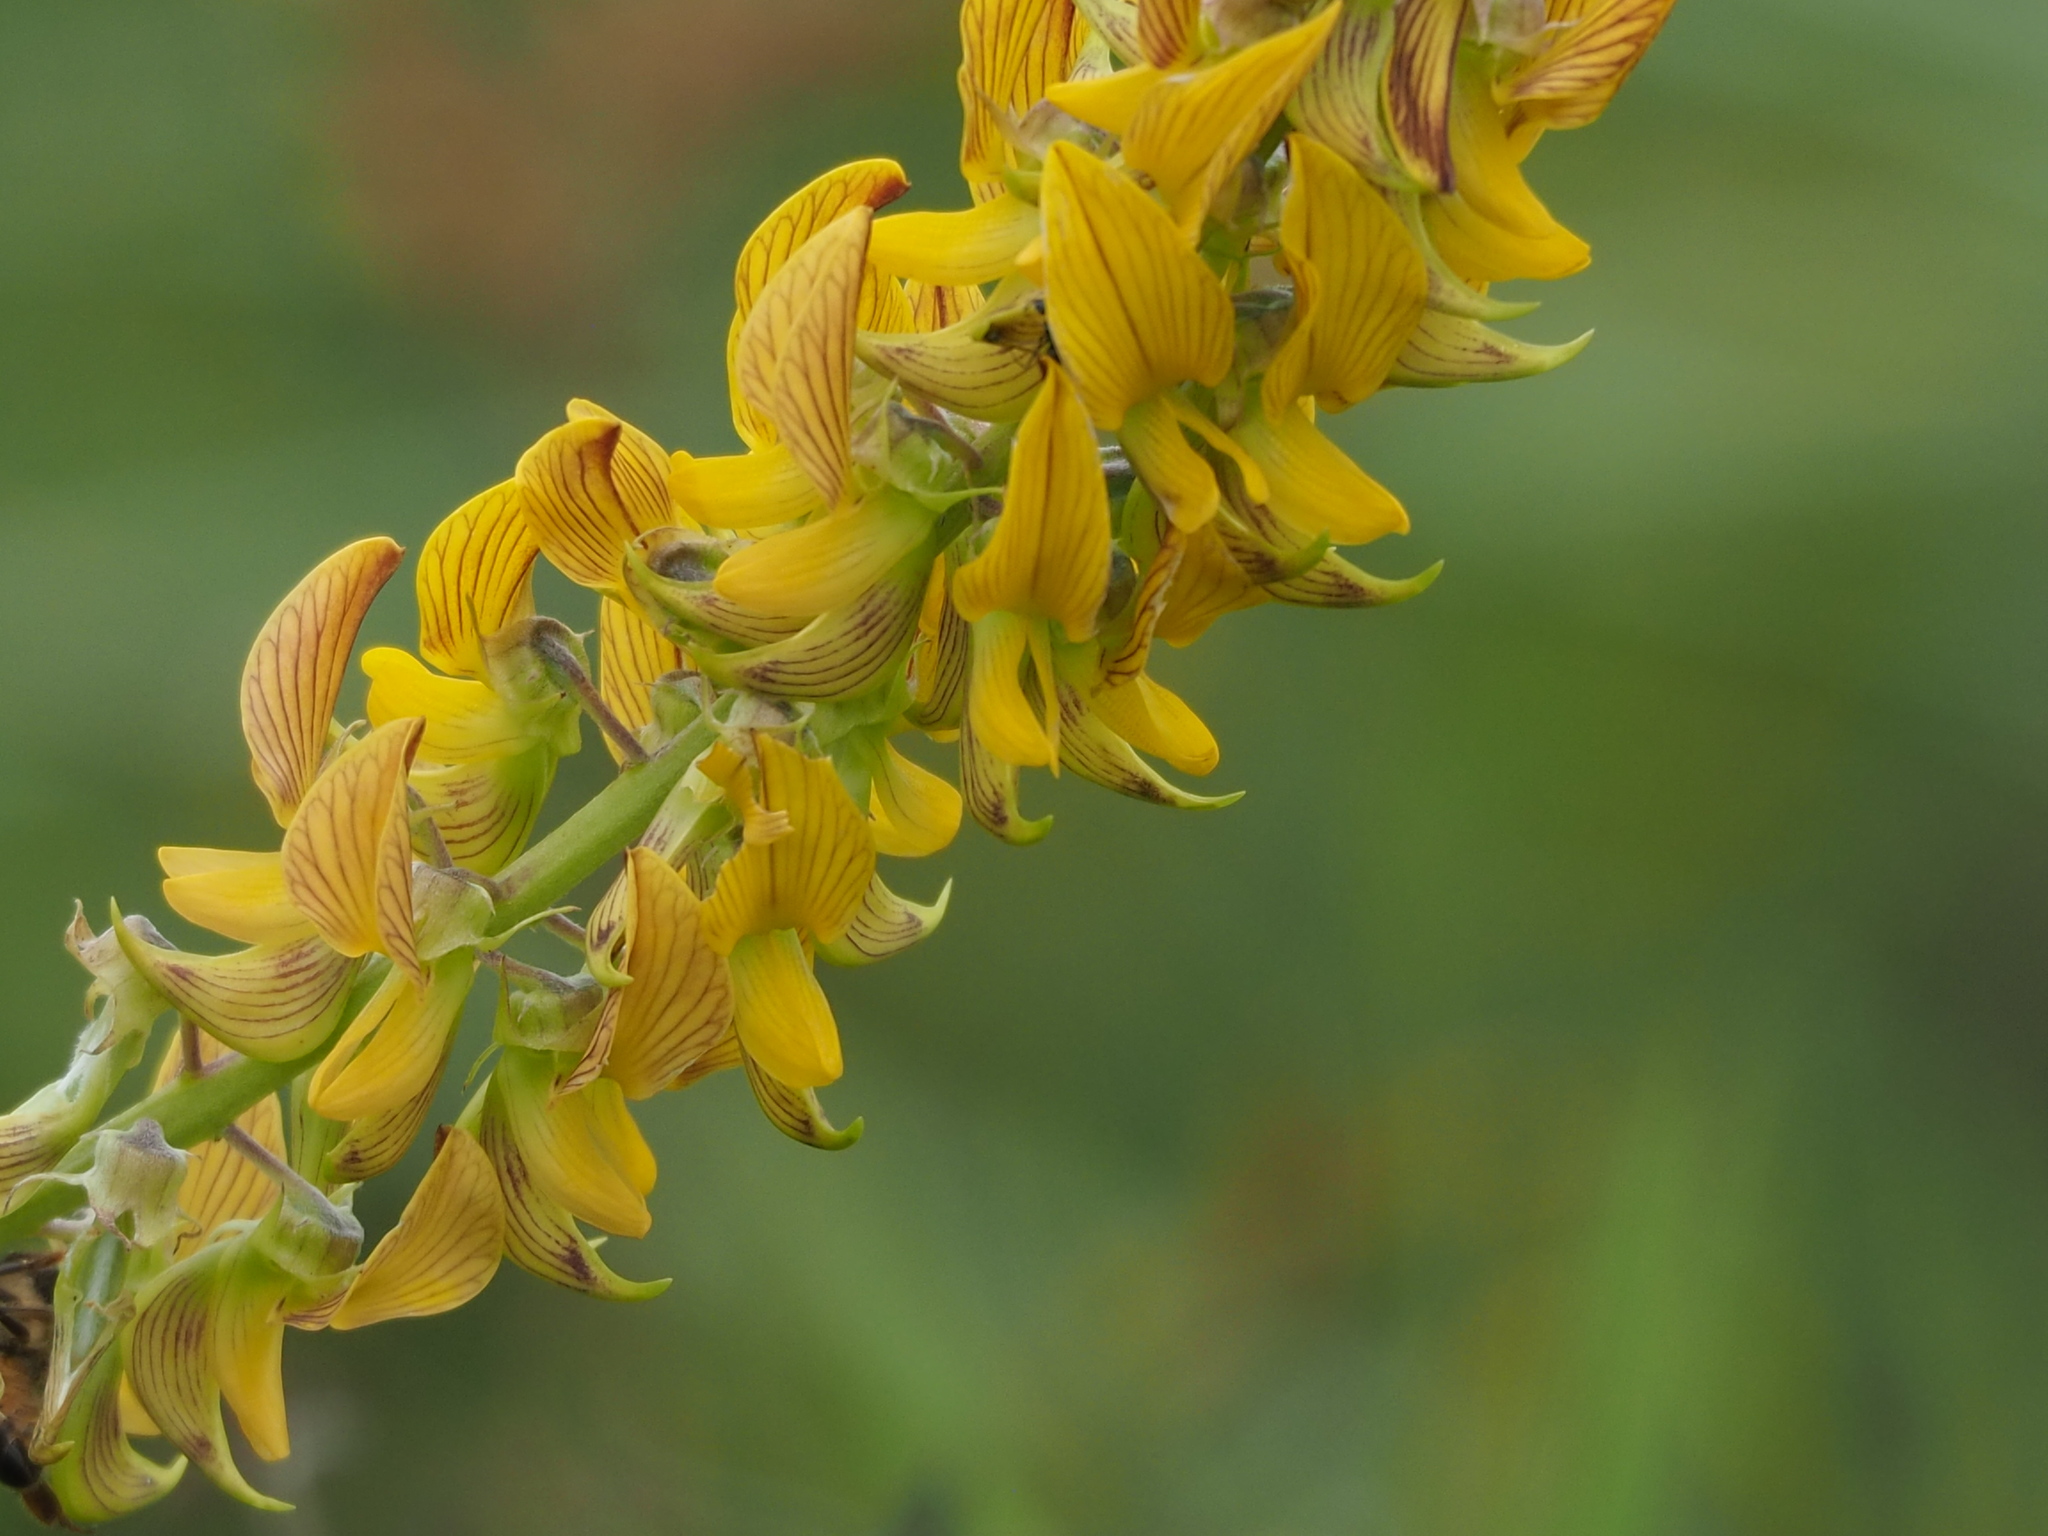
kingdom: Plantae
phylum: Tracheophyta
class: Magnoliopsida
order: Fabales
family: Fabaceae
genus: Crotalaria
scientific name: Crotalaria pallida
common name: Smooth rattlebox
